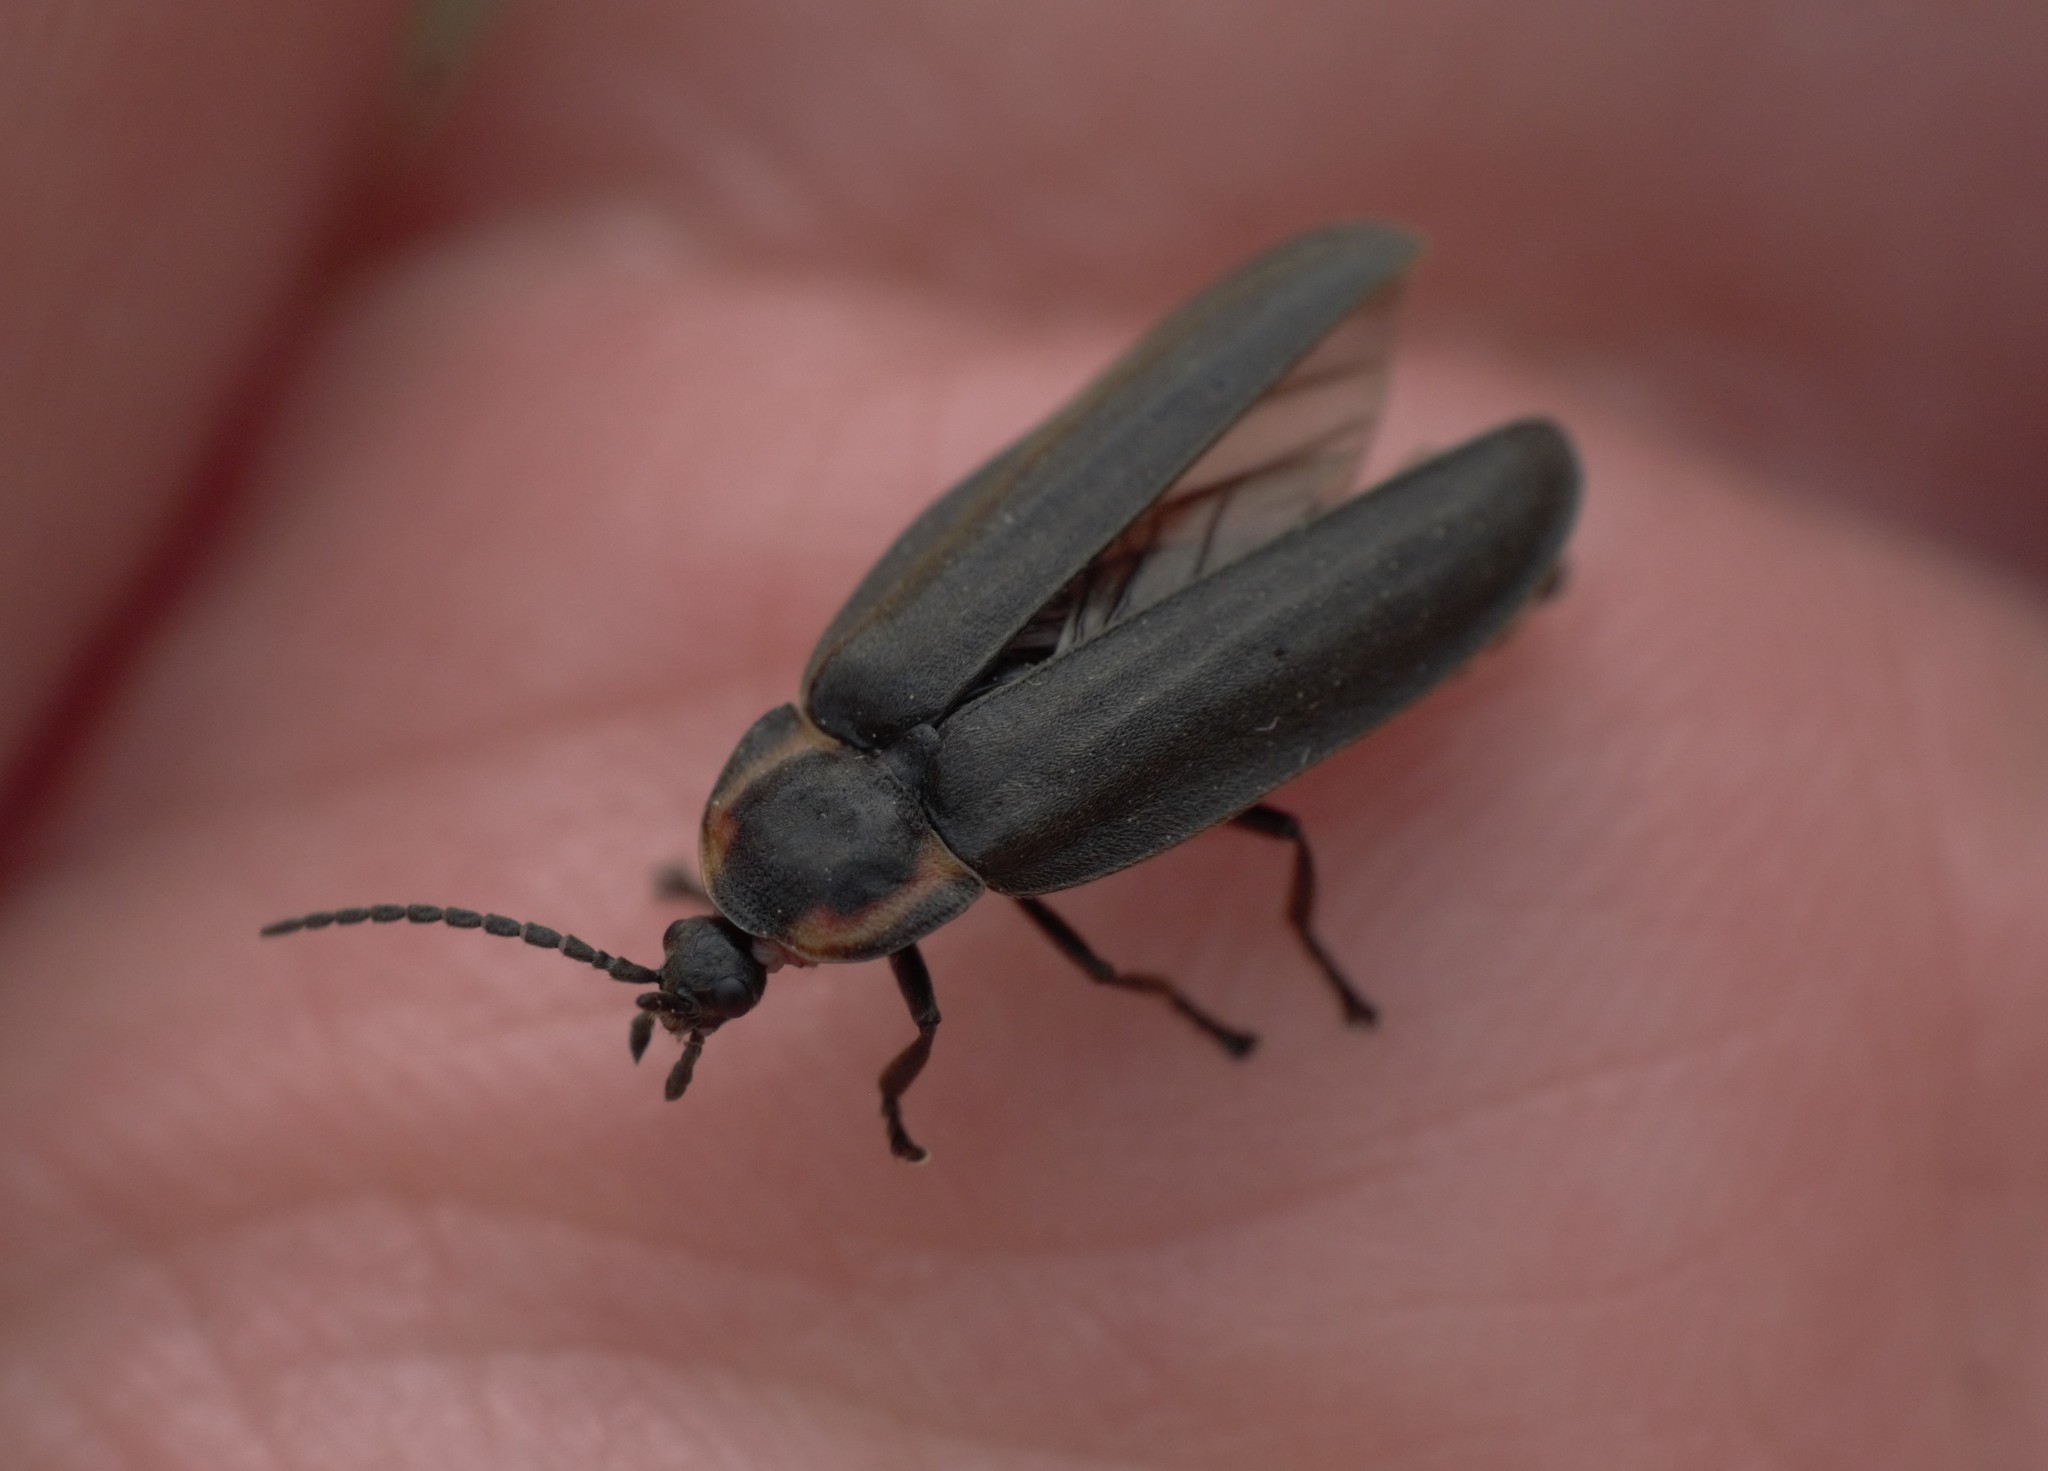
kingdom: Animalia
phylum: Arthropoda
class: Insecta
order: Coleoptera
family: Lampyridae
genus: Photinus
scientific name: Photinus corrusca
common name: Winter firefly
